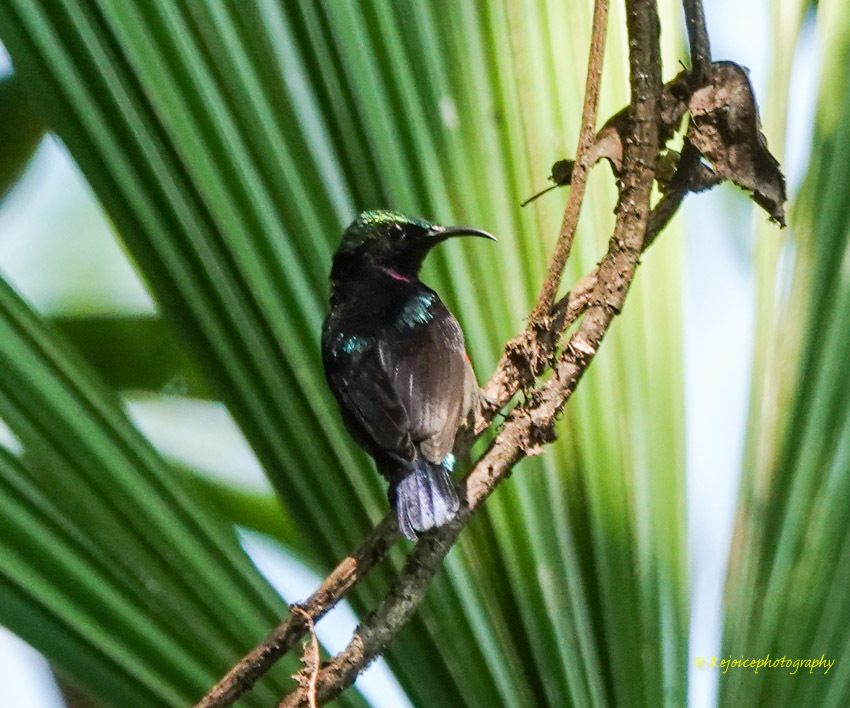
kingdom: Animalia
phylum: Chordata
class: Aves
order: Passeriformes
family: Nectariniidae
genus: Leptocoma
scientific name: Leptocoma brasiliana
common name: Van hasselt's sunbird
